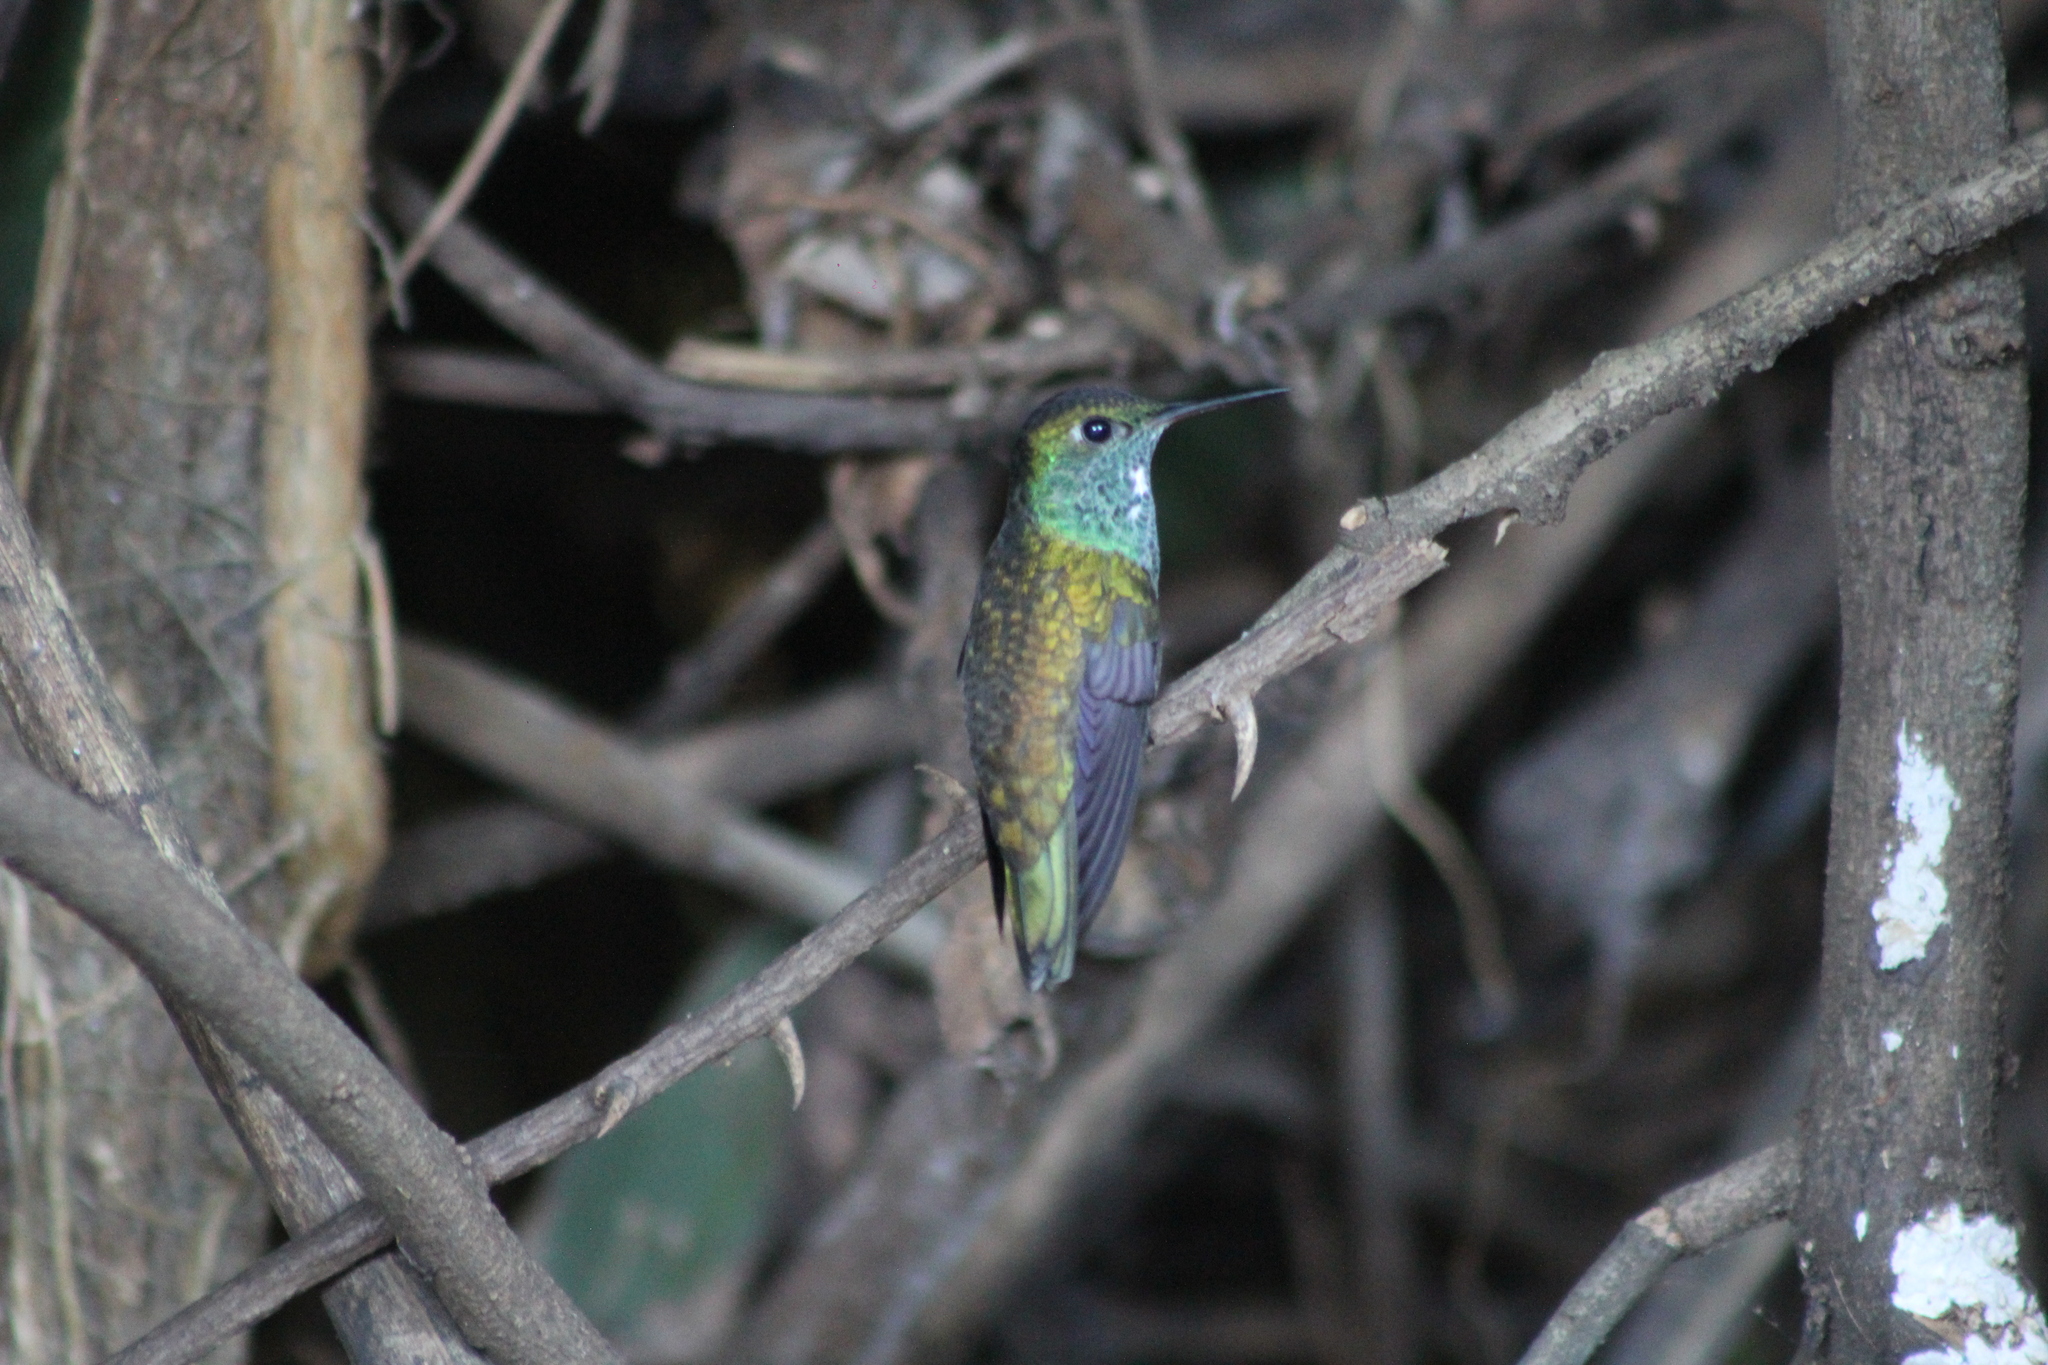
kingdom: Animalia
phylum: Chordata
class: Aves
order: Apodiformes
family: Trochilidae
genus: Chrysuronia
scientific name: Chrysuronia versicolor
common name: Versicolored emerald
